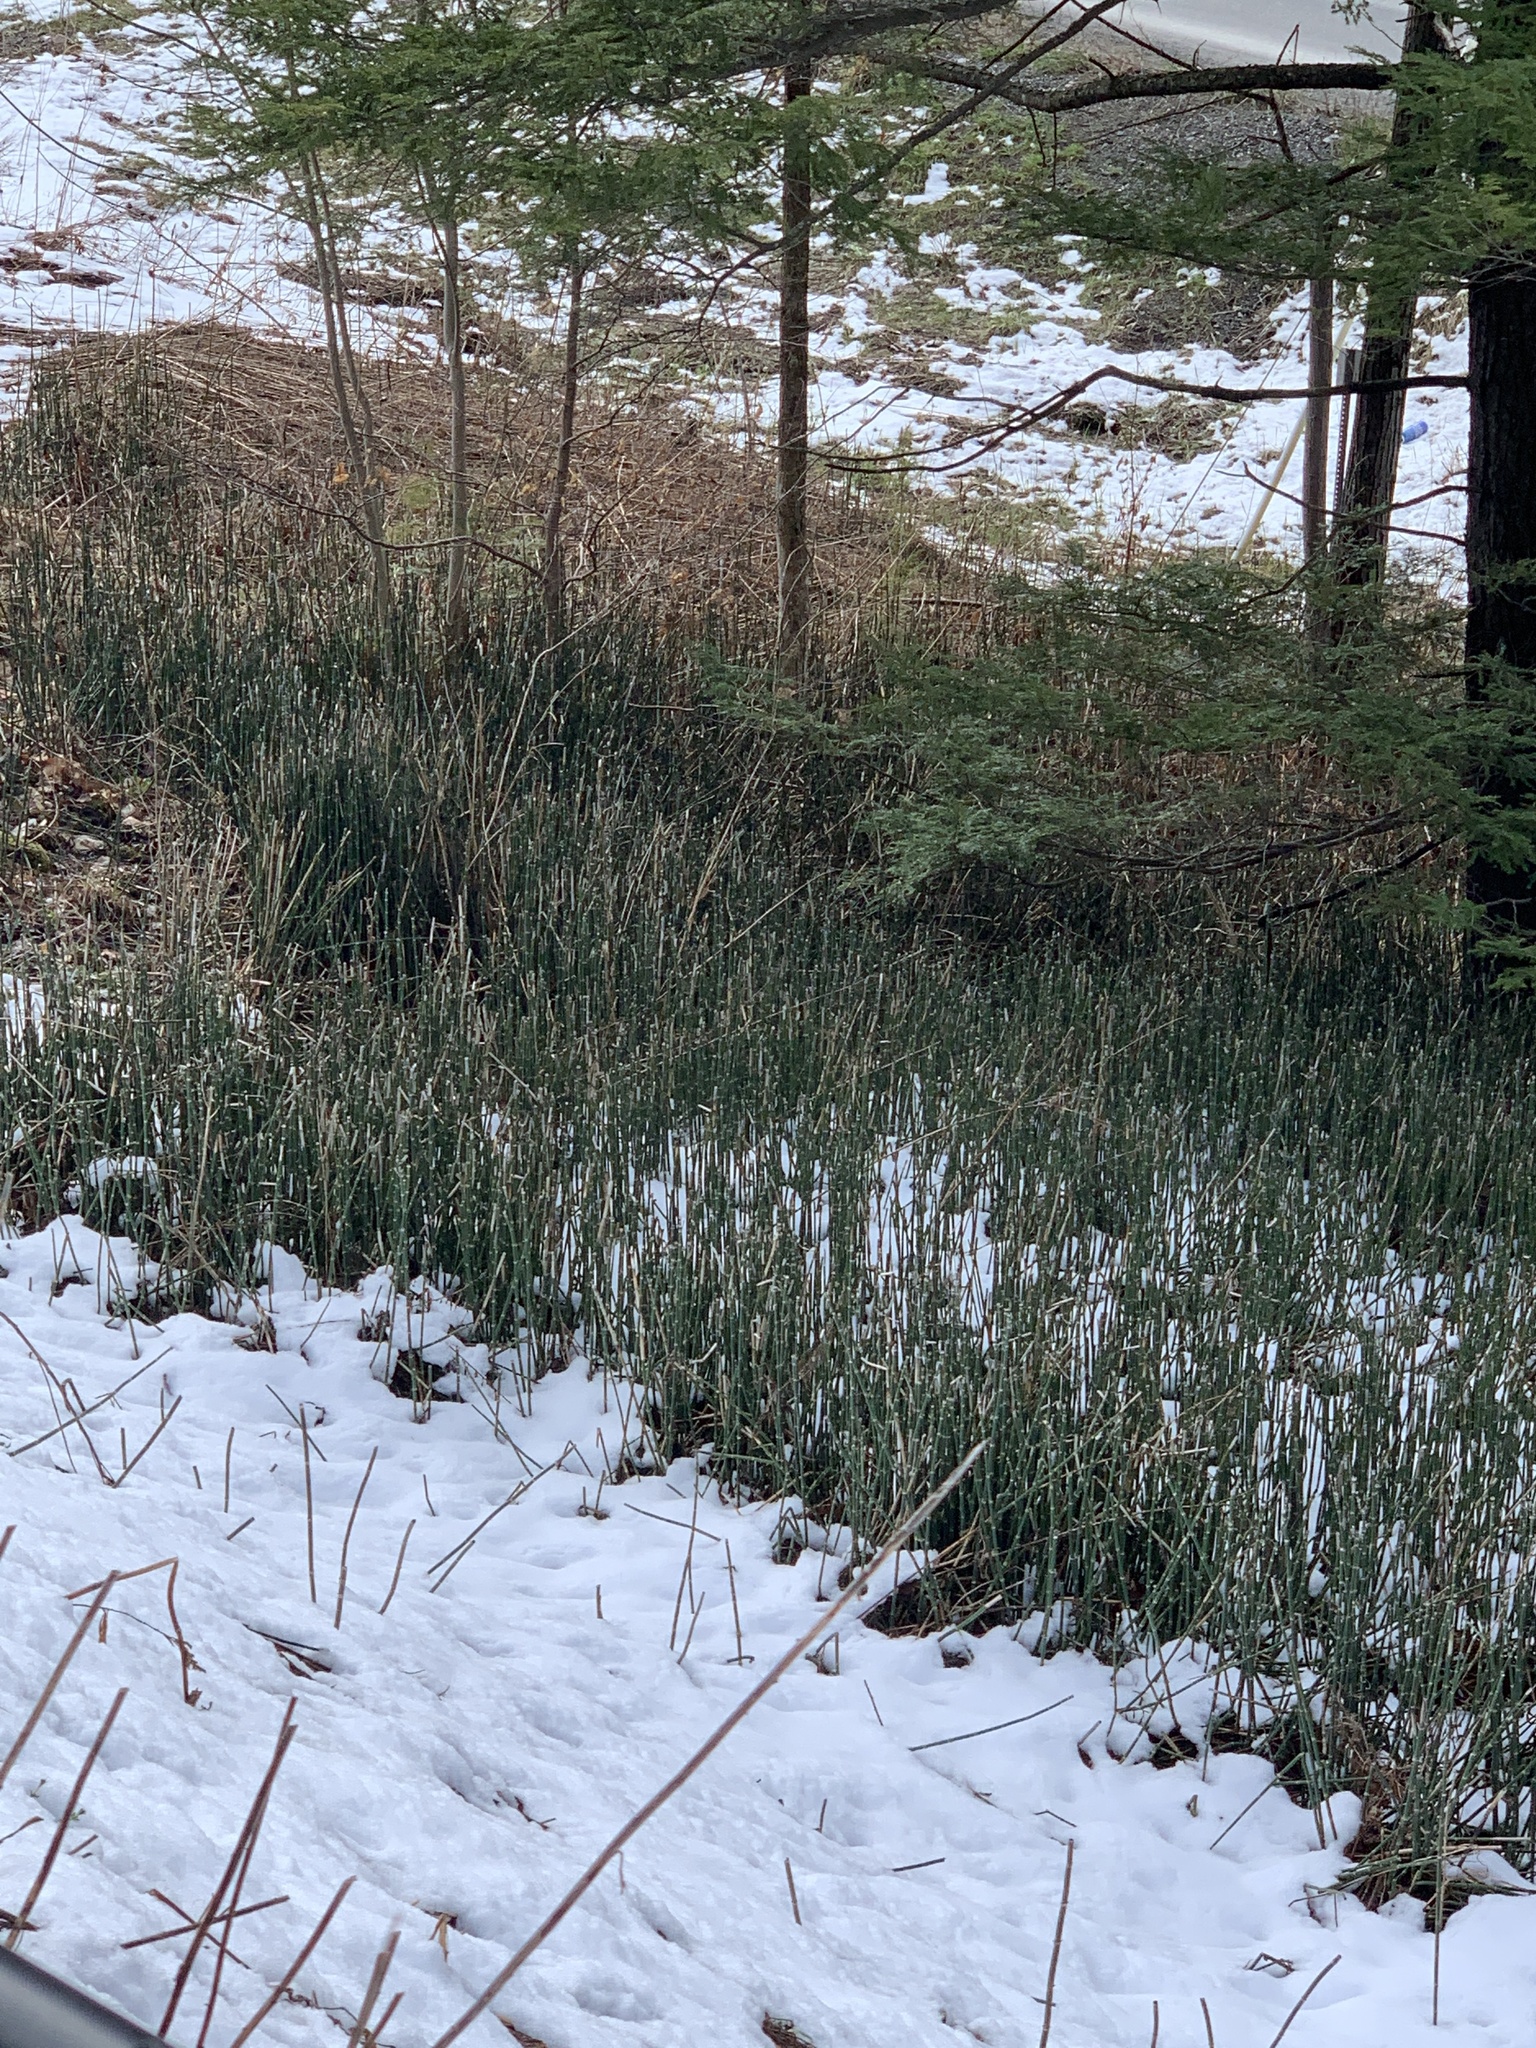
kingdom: Plantae
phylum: Tracheophyta
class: Polypodiopsida
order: Equisetales
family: Equisetaceae
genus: Equisetum
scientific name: Equisetum hyemale
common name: Rough horsetail
